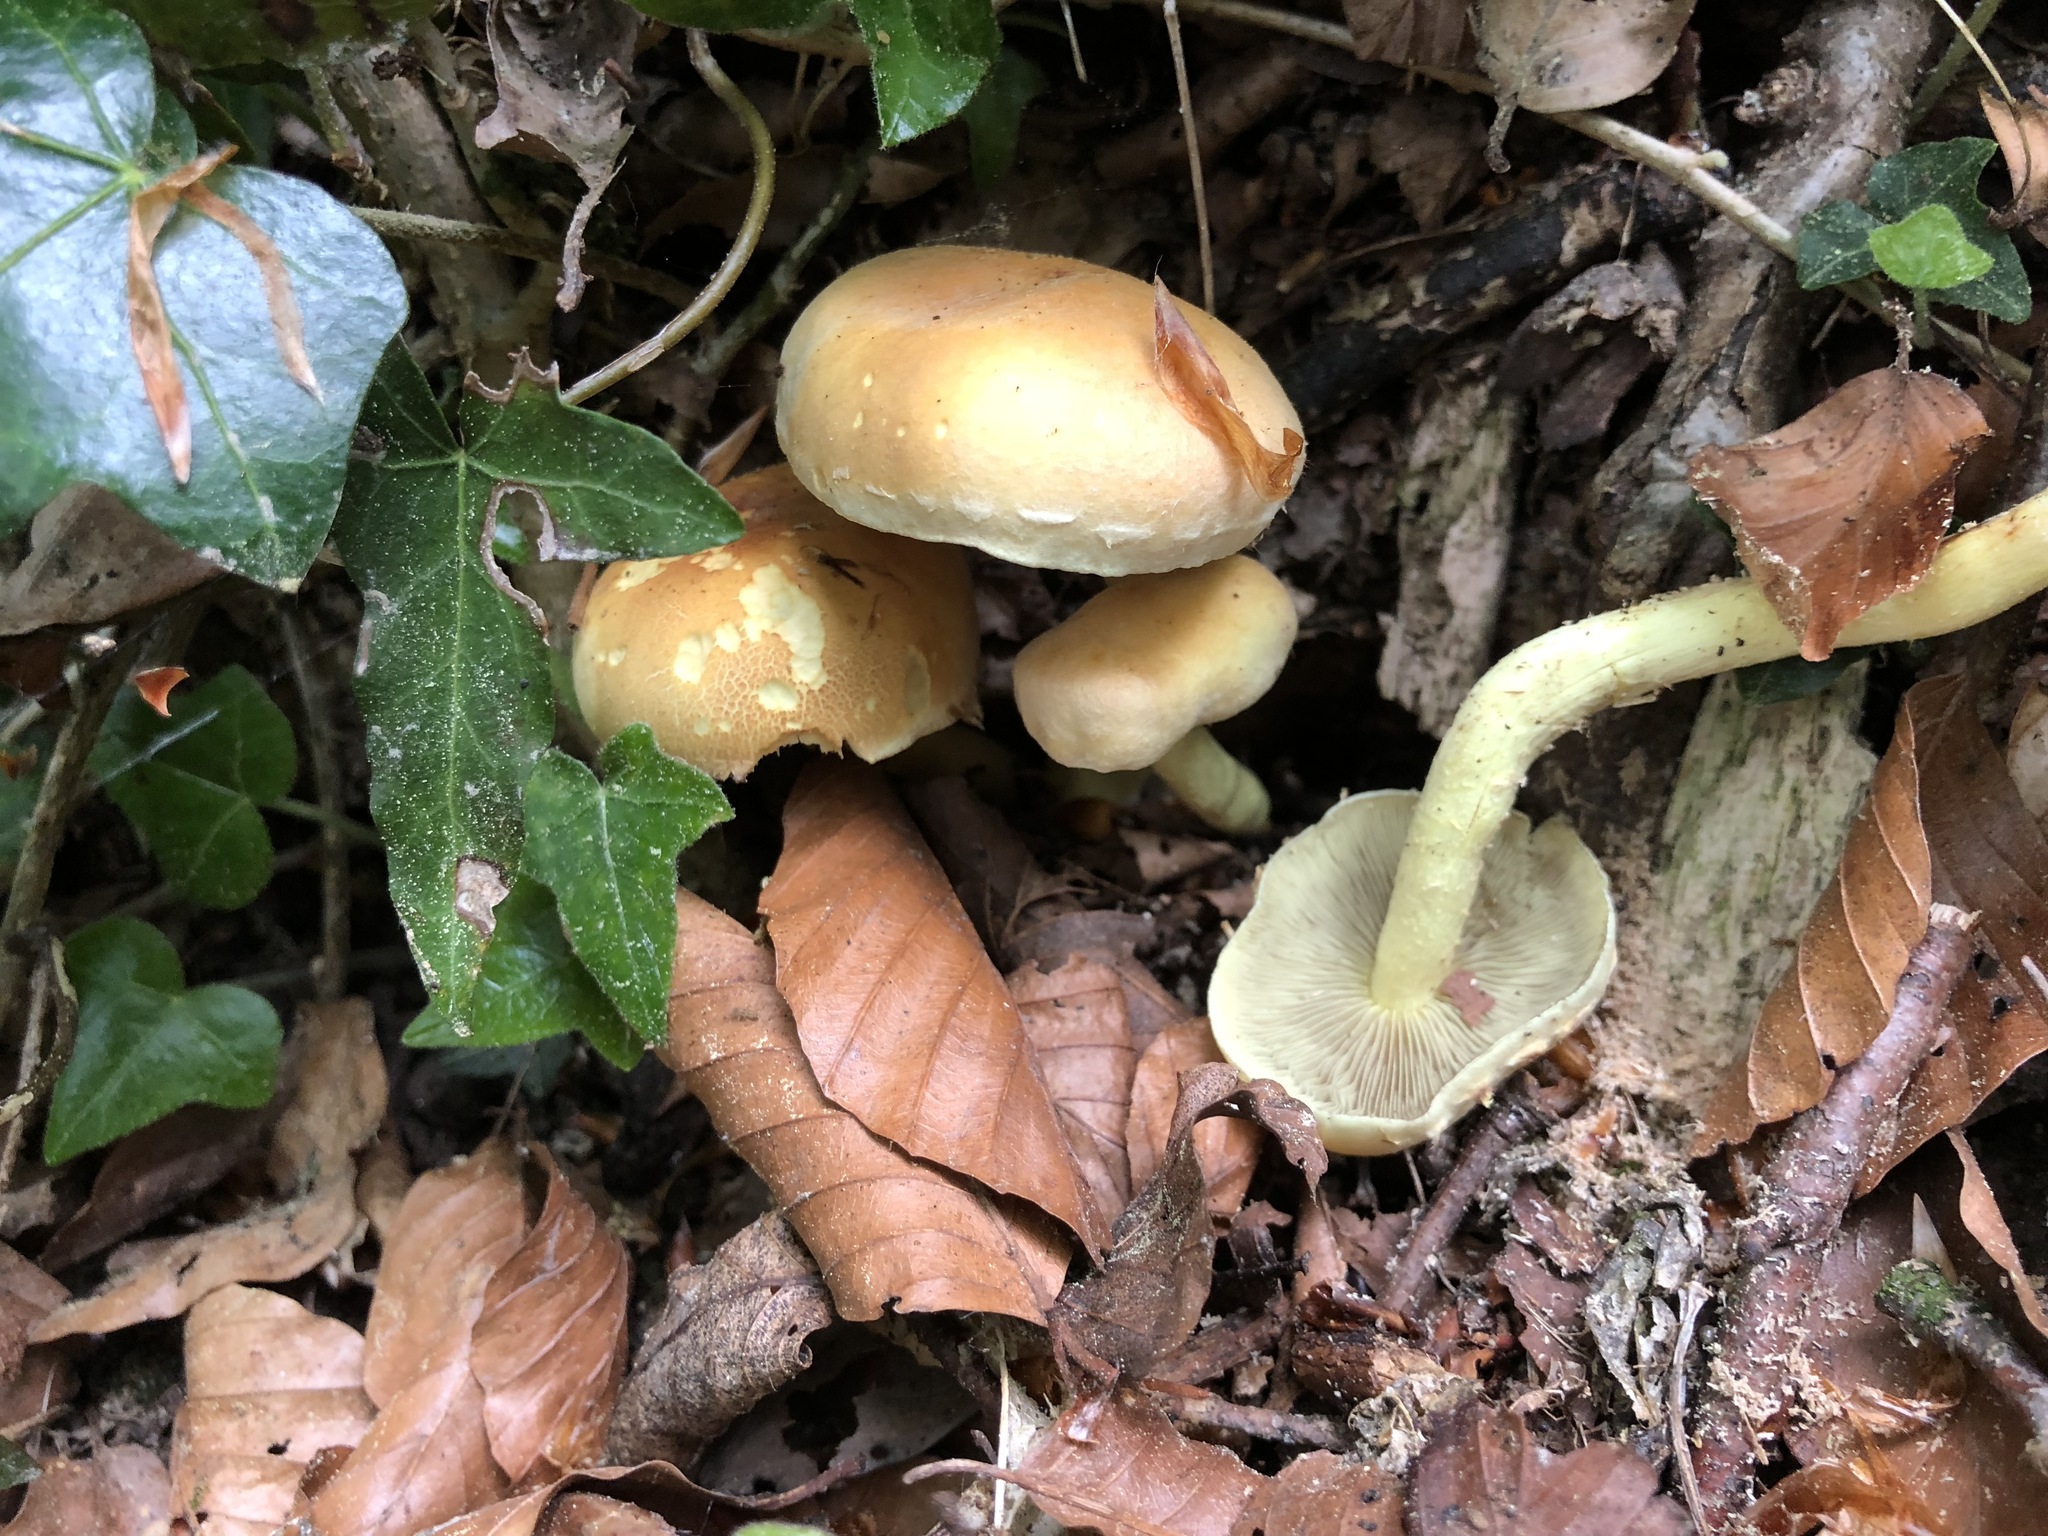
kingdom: Fungi
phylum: Basidiomycota
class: Agaricomycetes
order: Agaricales
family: Strophariaceae
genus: Hypholoma
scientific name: Hypholoma fasciculare
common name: Sulphur tuft
